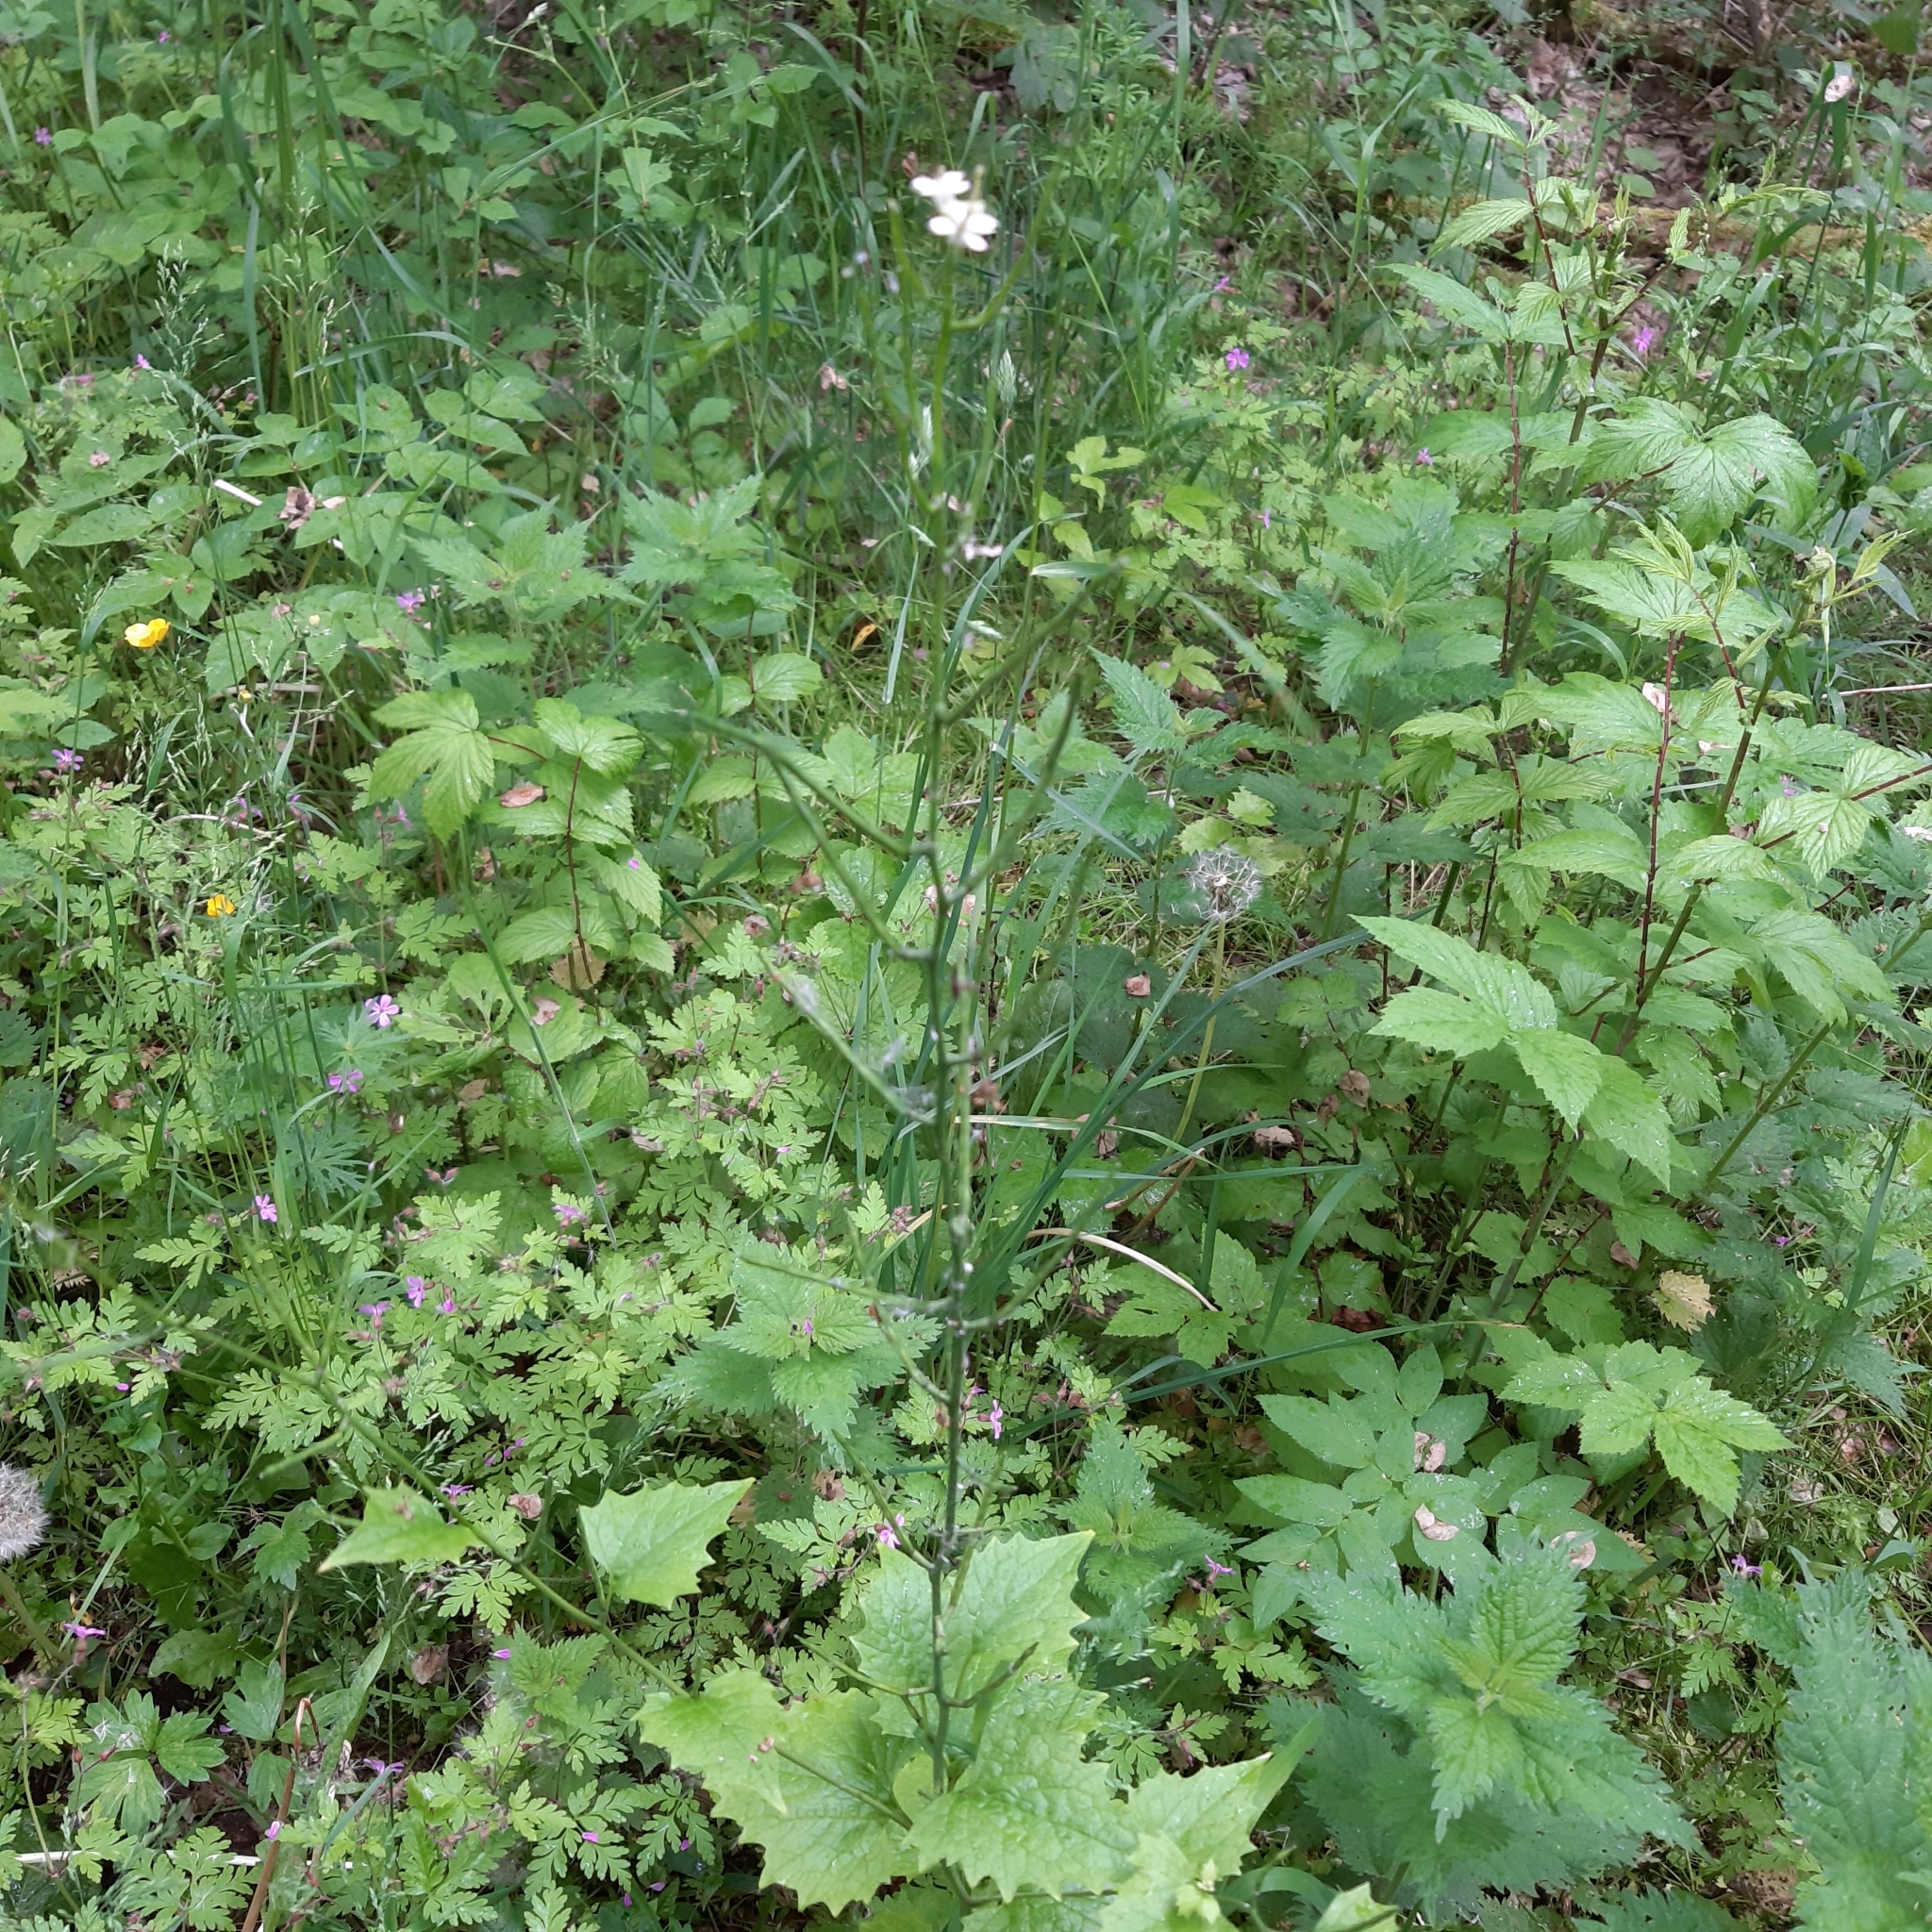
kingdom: Plantae
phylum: Tracheophyta
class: Magnoliopsida
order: Brassicales
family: Brassicaceae
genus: Alliaria
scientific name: Alliaria petiolata
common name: Garlic mustard
